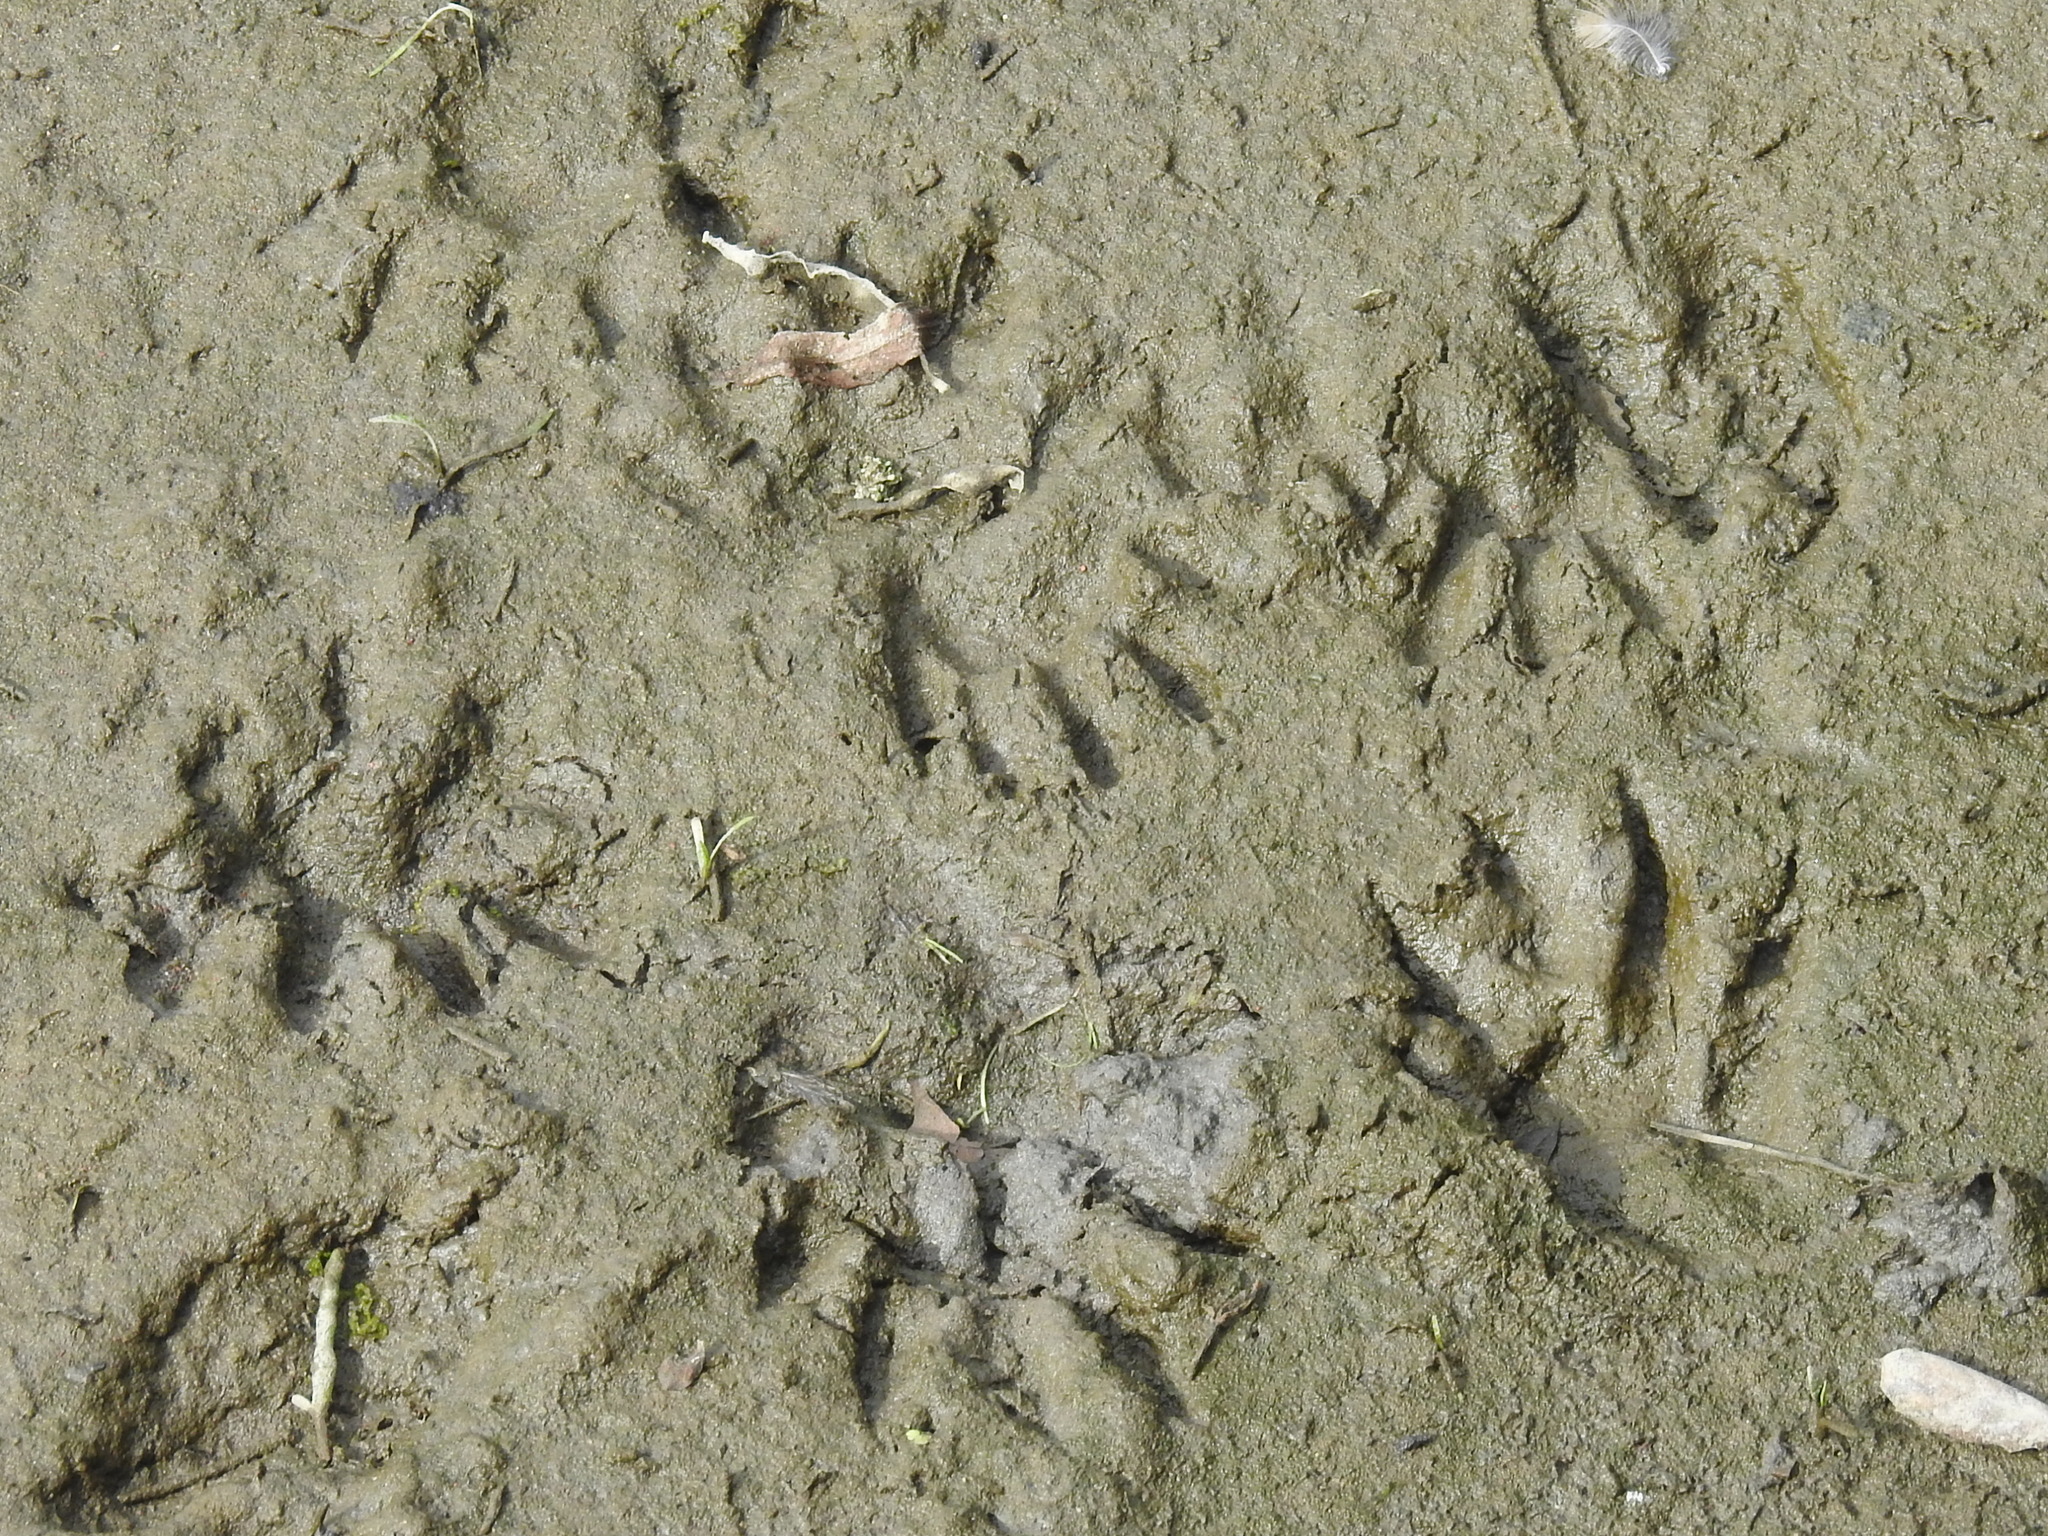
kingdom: Animalia
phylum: Chordata
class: Mammalia
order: Carnivora
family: Procyonidae
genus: Procyon
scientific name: Procyon lotor
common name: Raccoon
